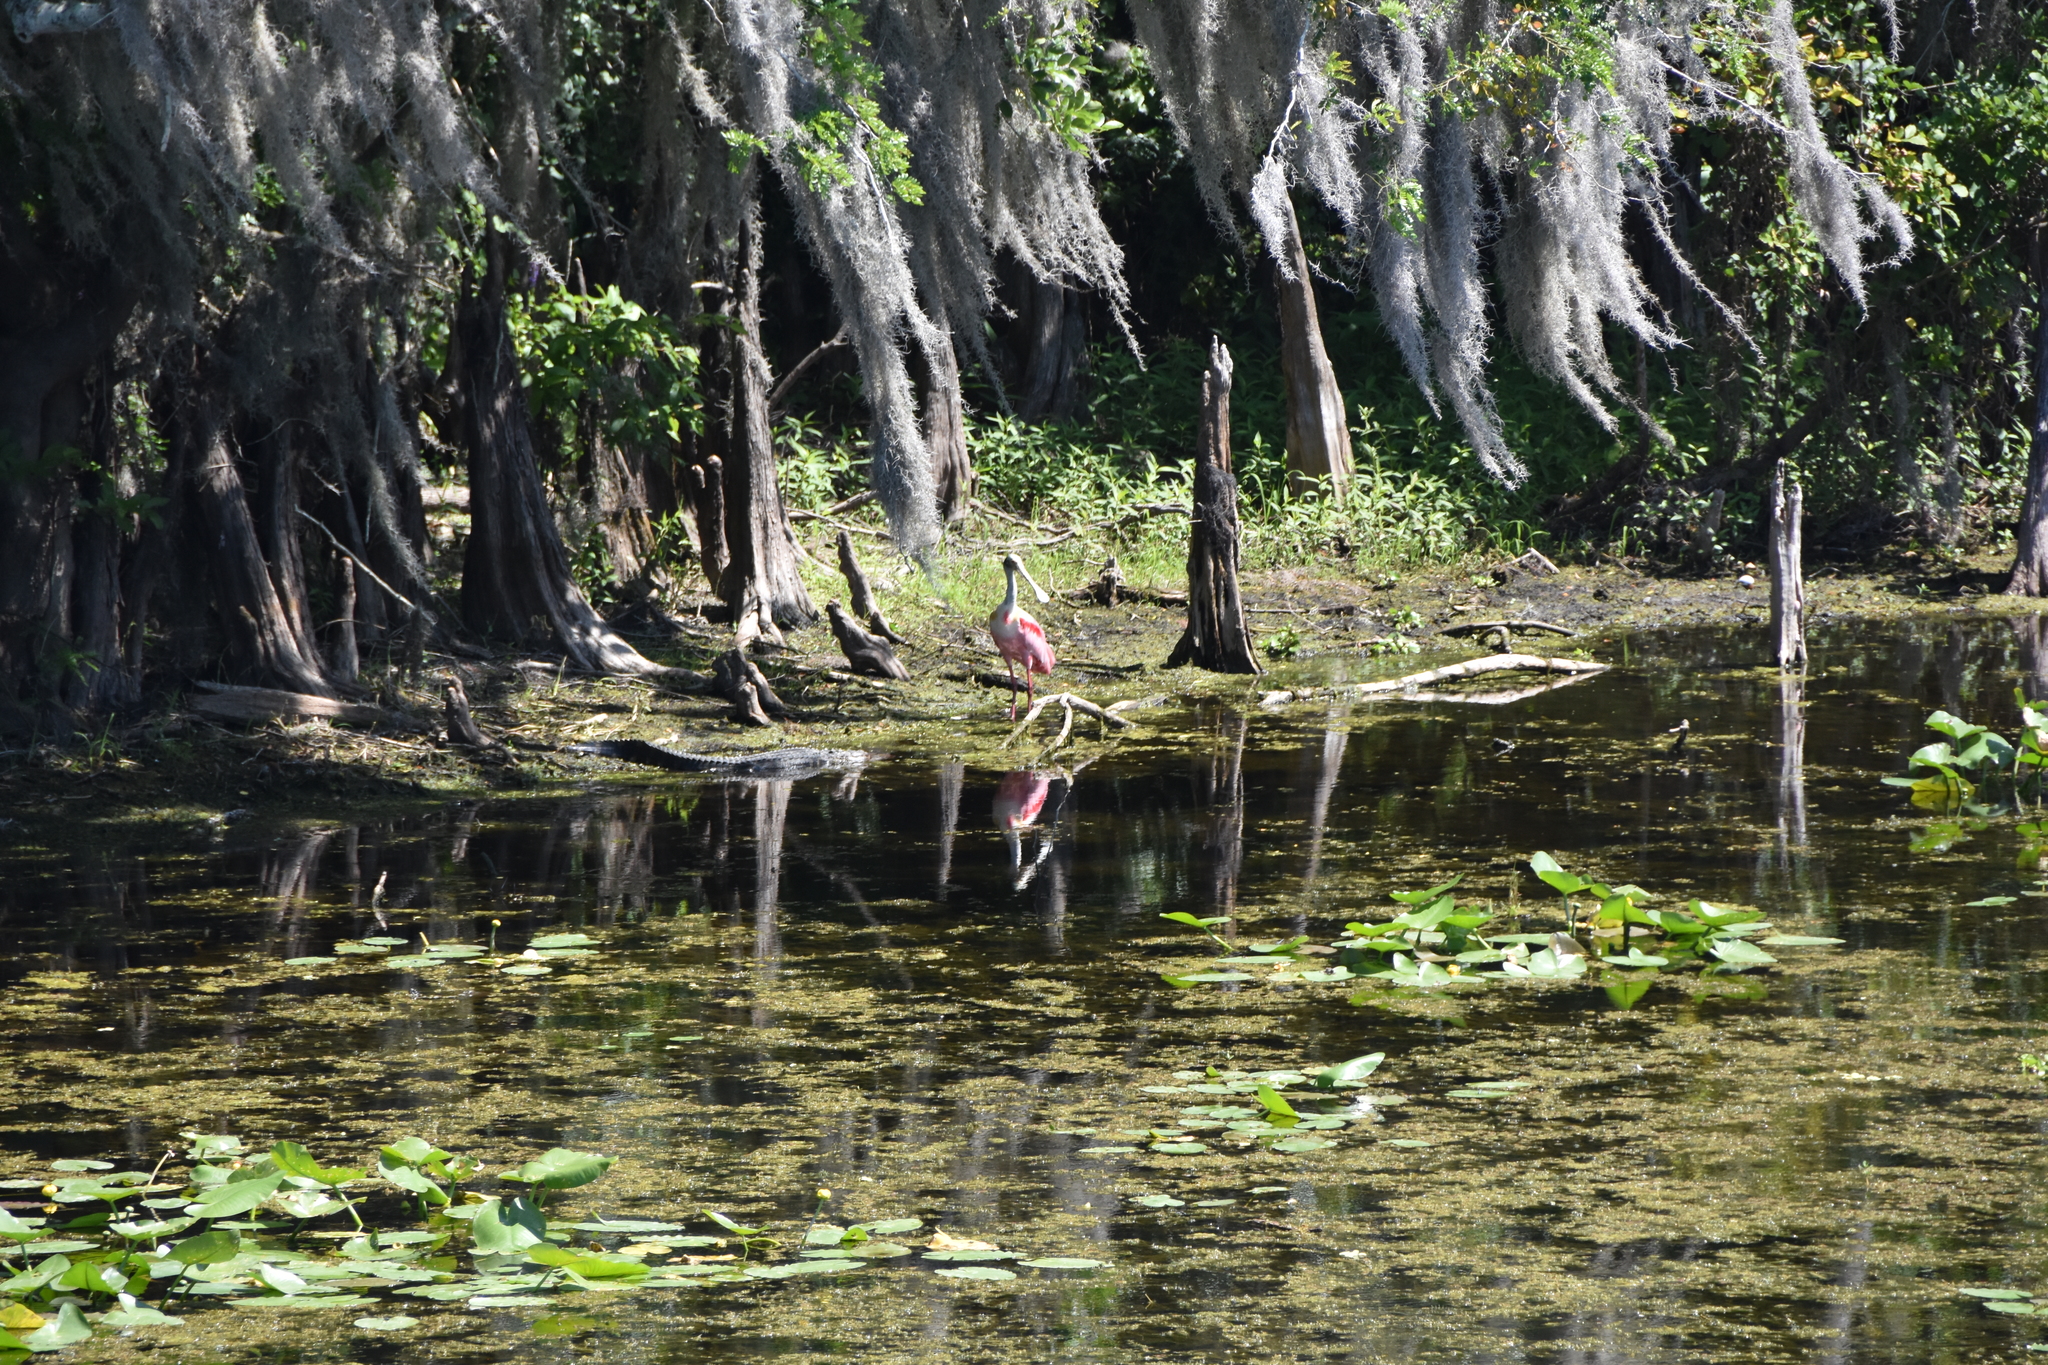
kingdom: Animalia
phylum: Chordata
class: Aves
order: Pelecaniformes
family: Threskiornithidae
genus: Platalea
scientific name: Platalea ajaja
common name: Roseate spoonbill
